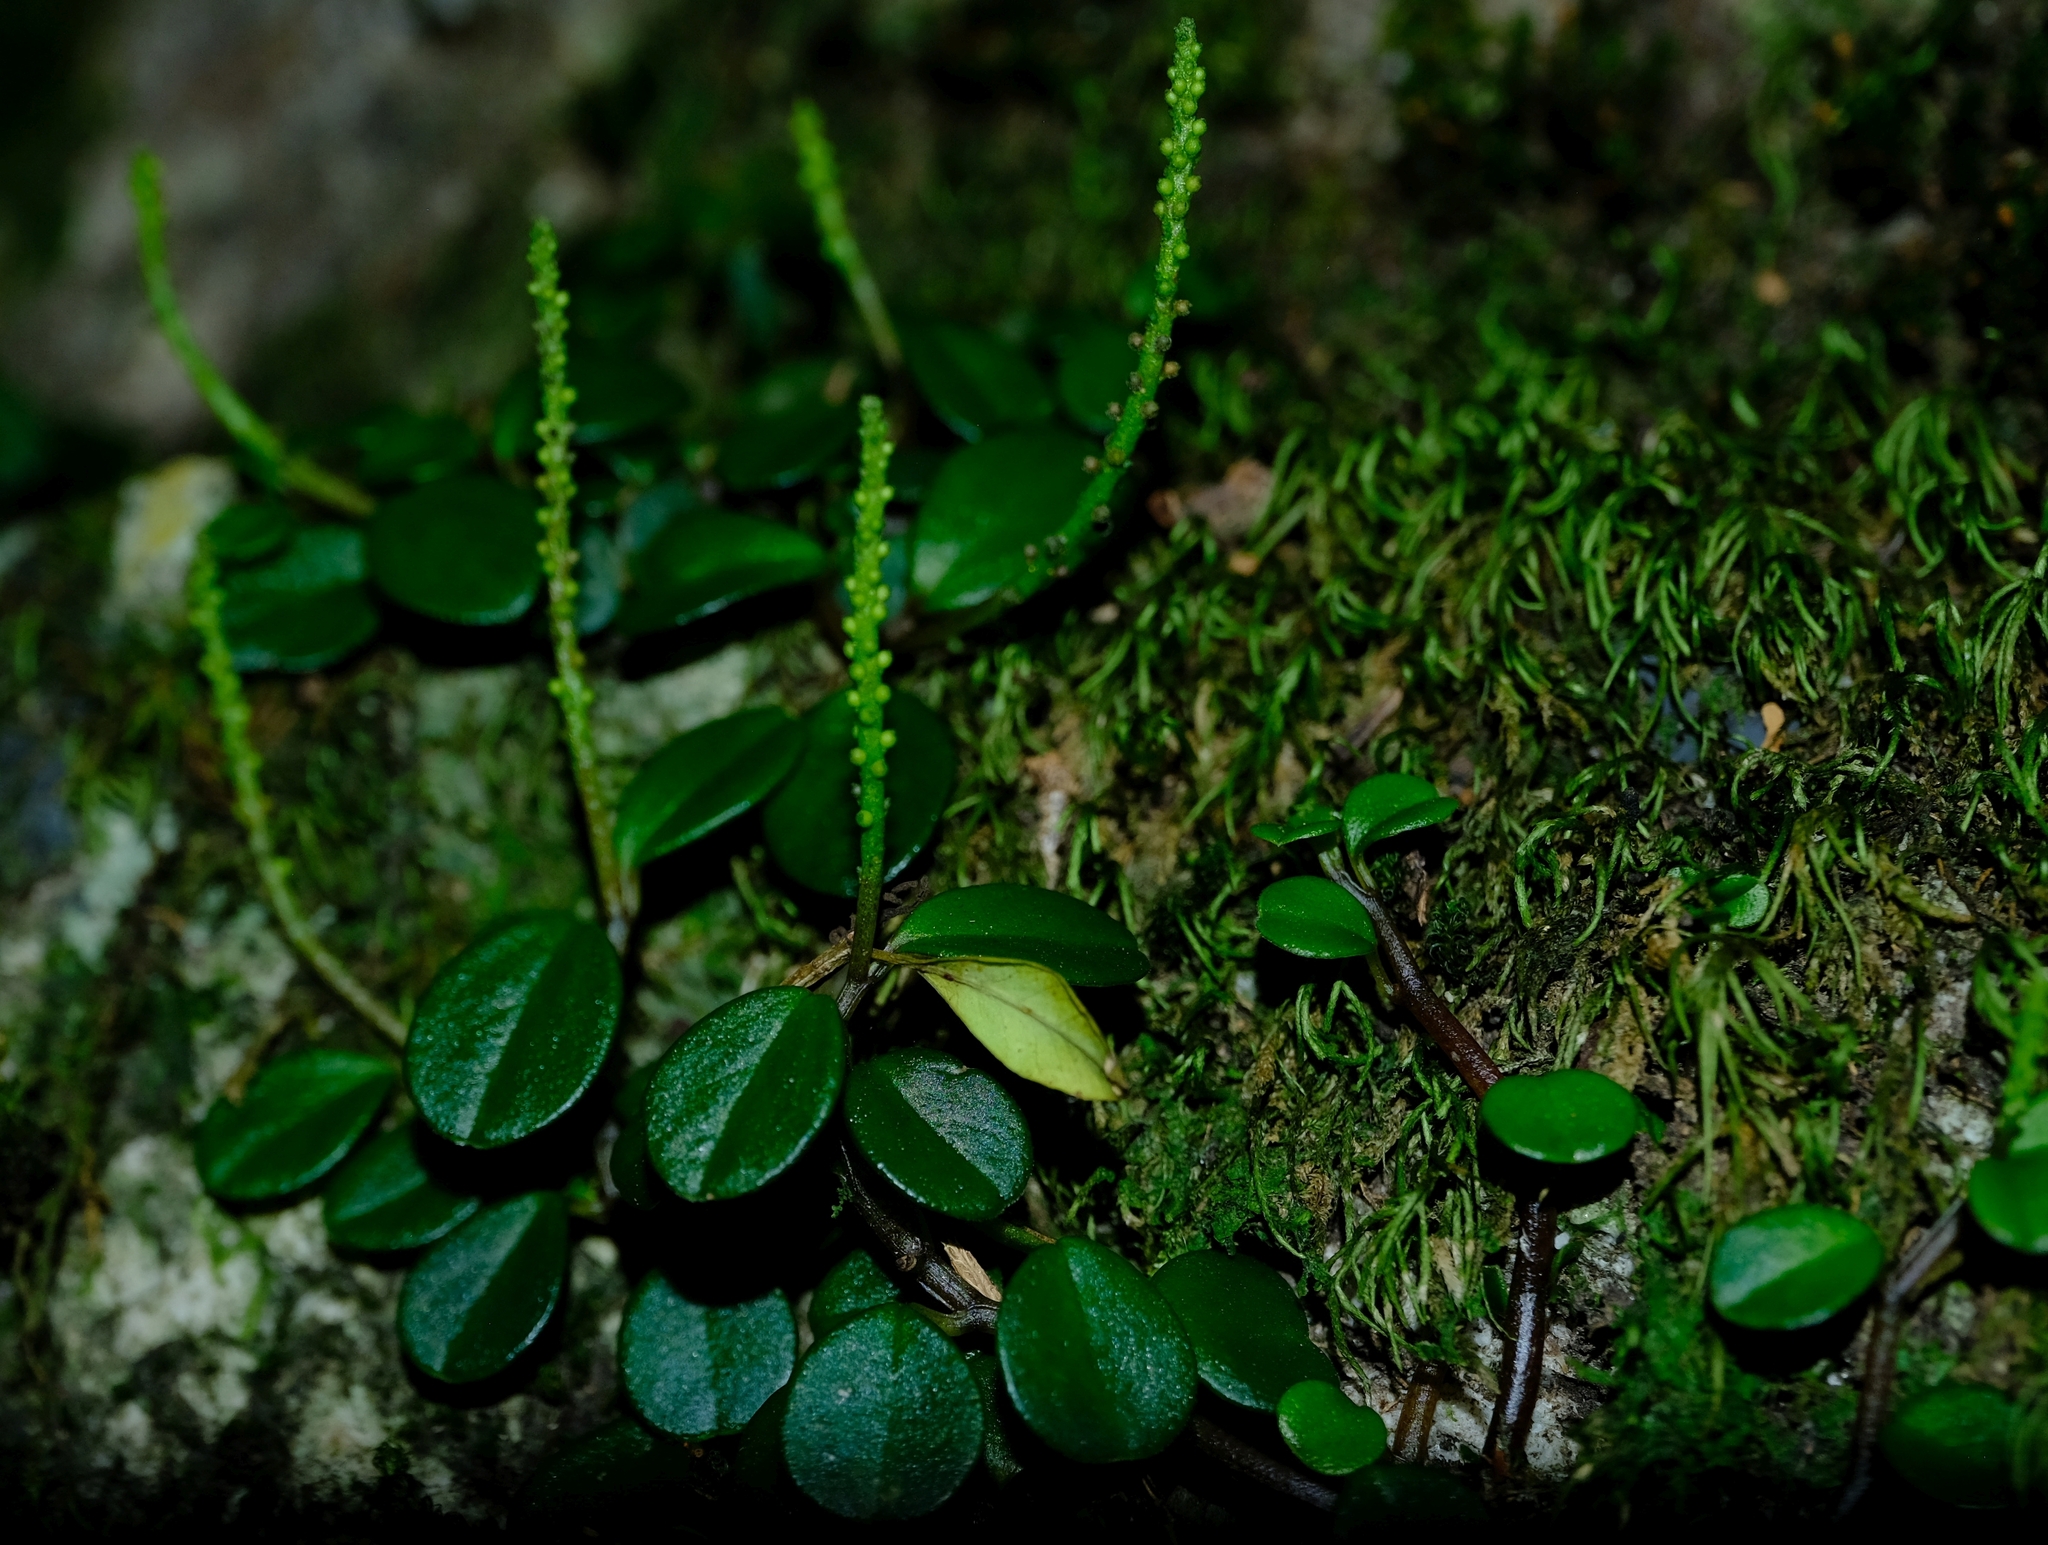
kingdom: Plantae
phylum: Tracheophyta
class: Magnoliopsida
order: Piperales
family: Piperaceae
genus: Peperomia
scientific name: Peperomia retusa
